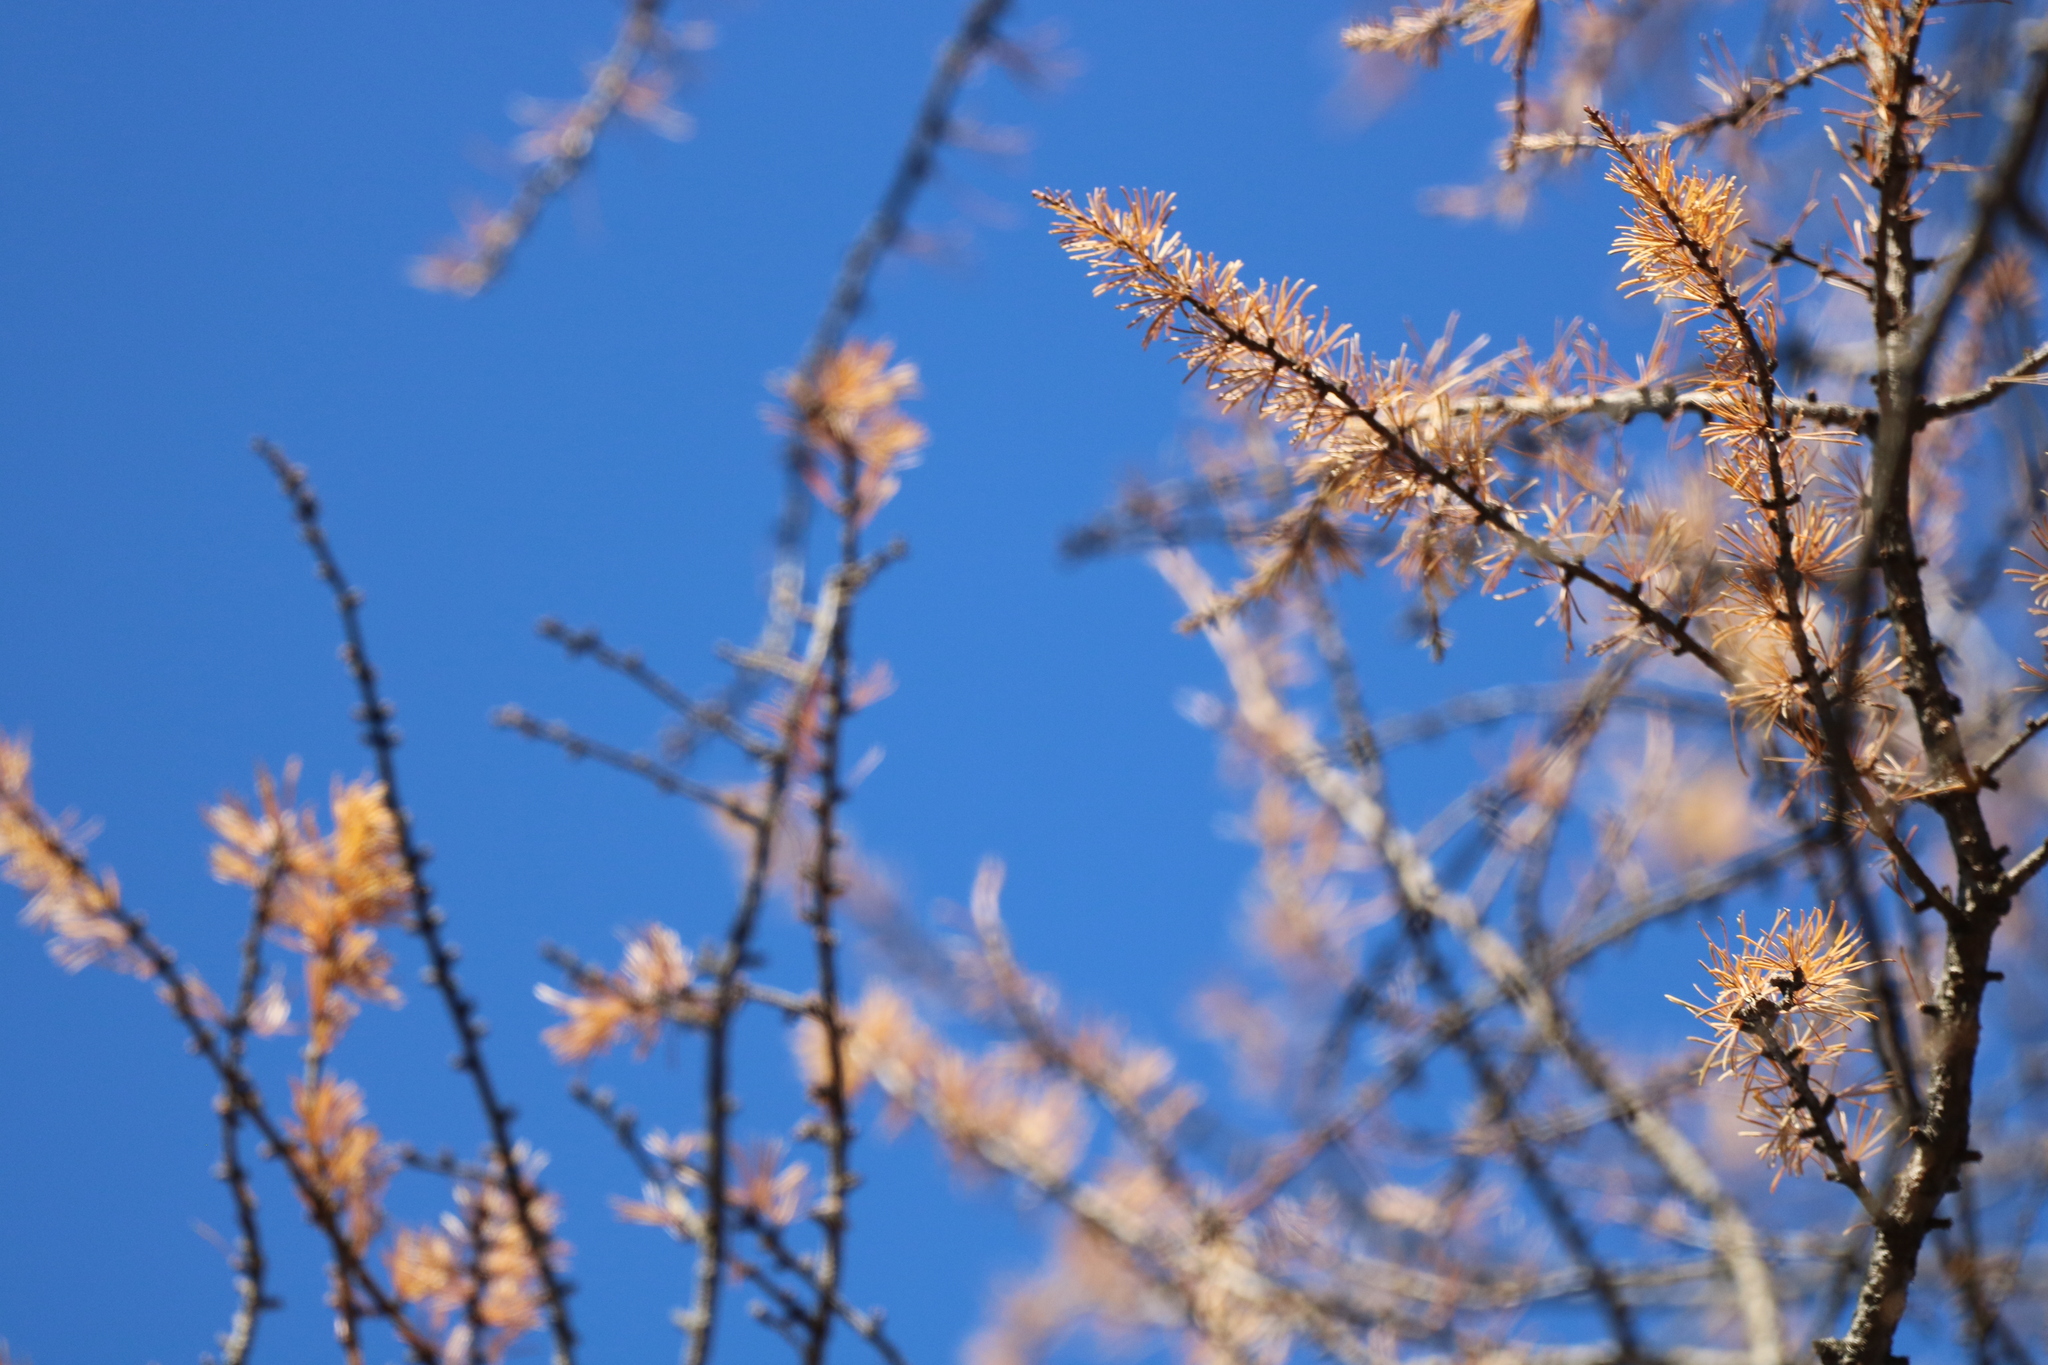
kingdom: Plantae
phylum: Tracheophyta
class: Pinopsida
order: Pinales
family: Pinaceae
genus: Larix
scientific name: Larix laricina
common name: American larch
